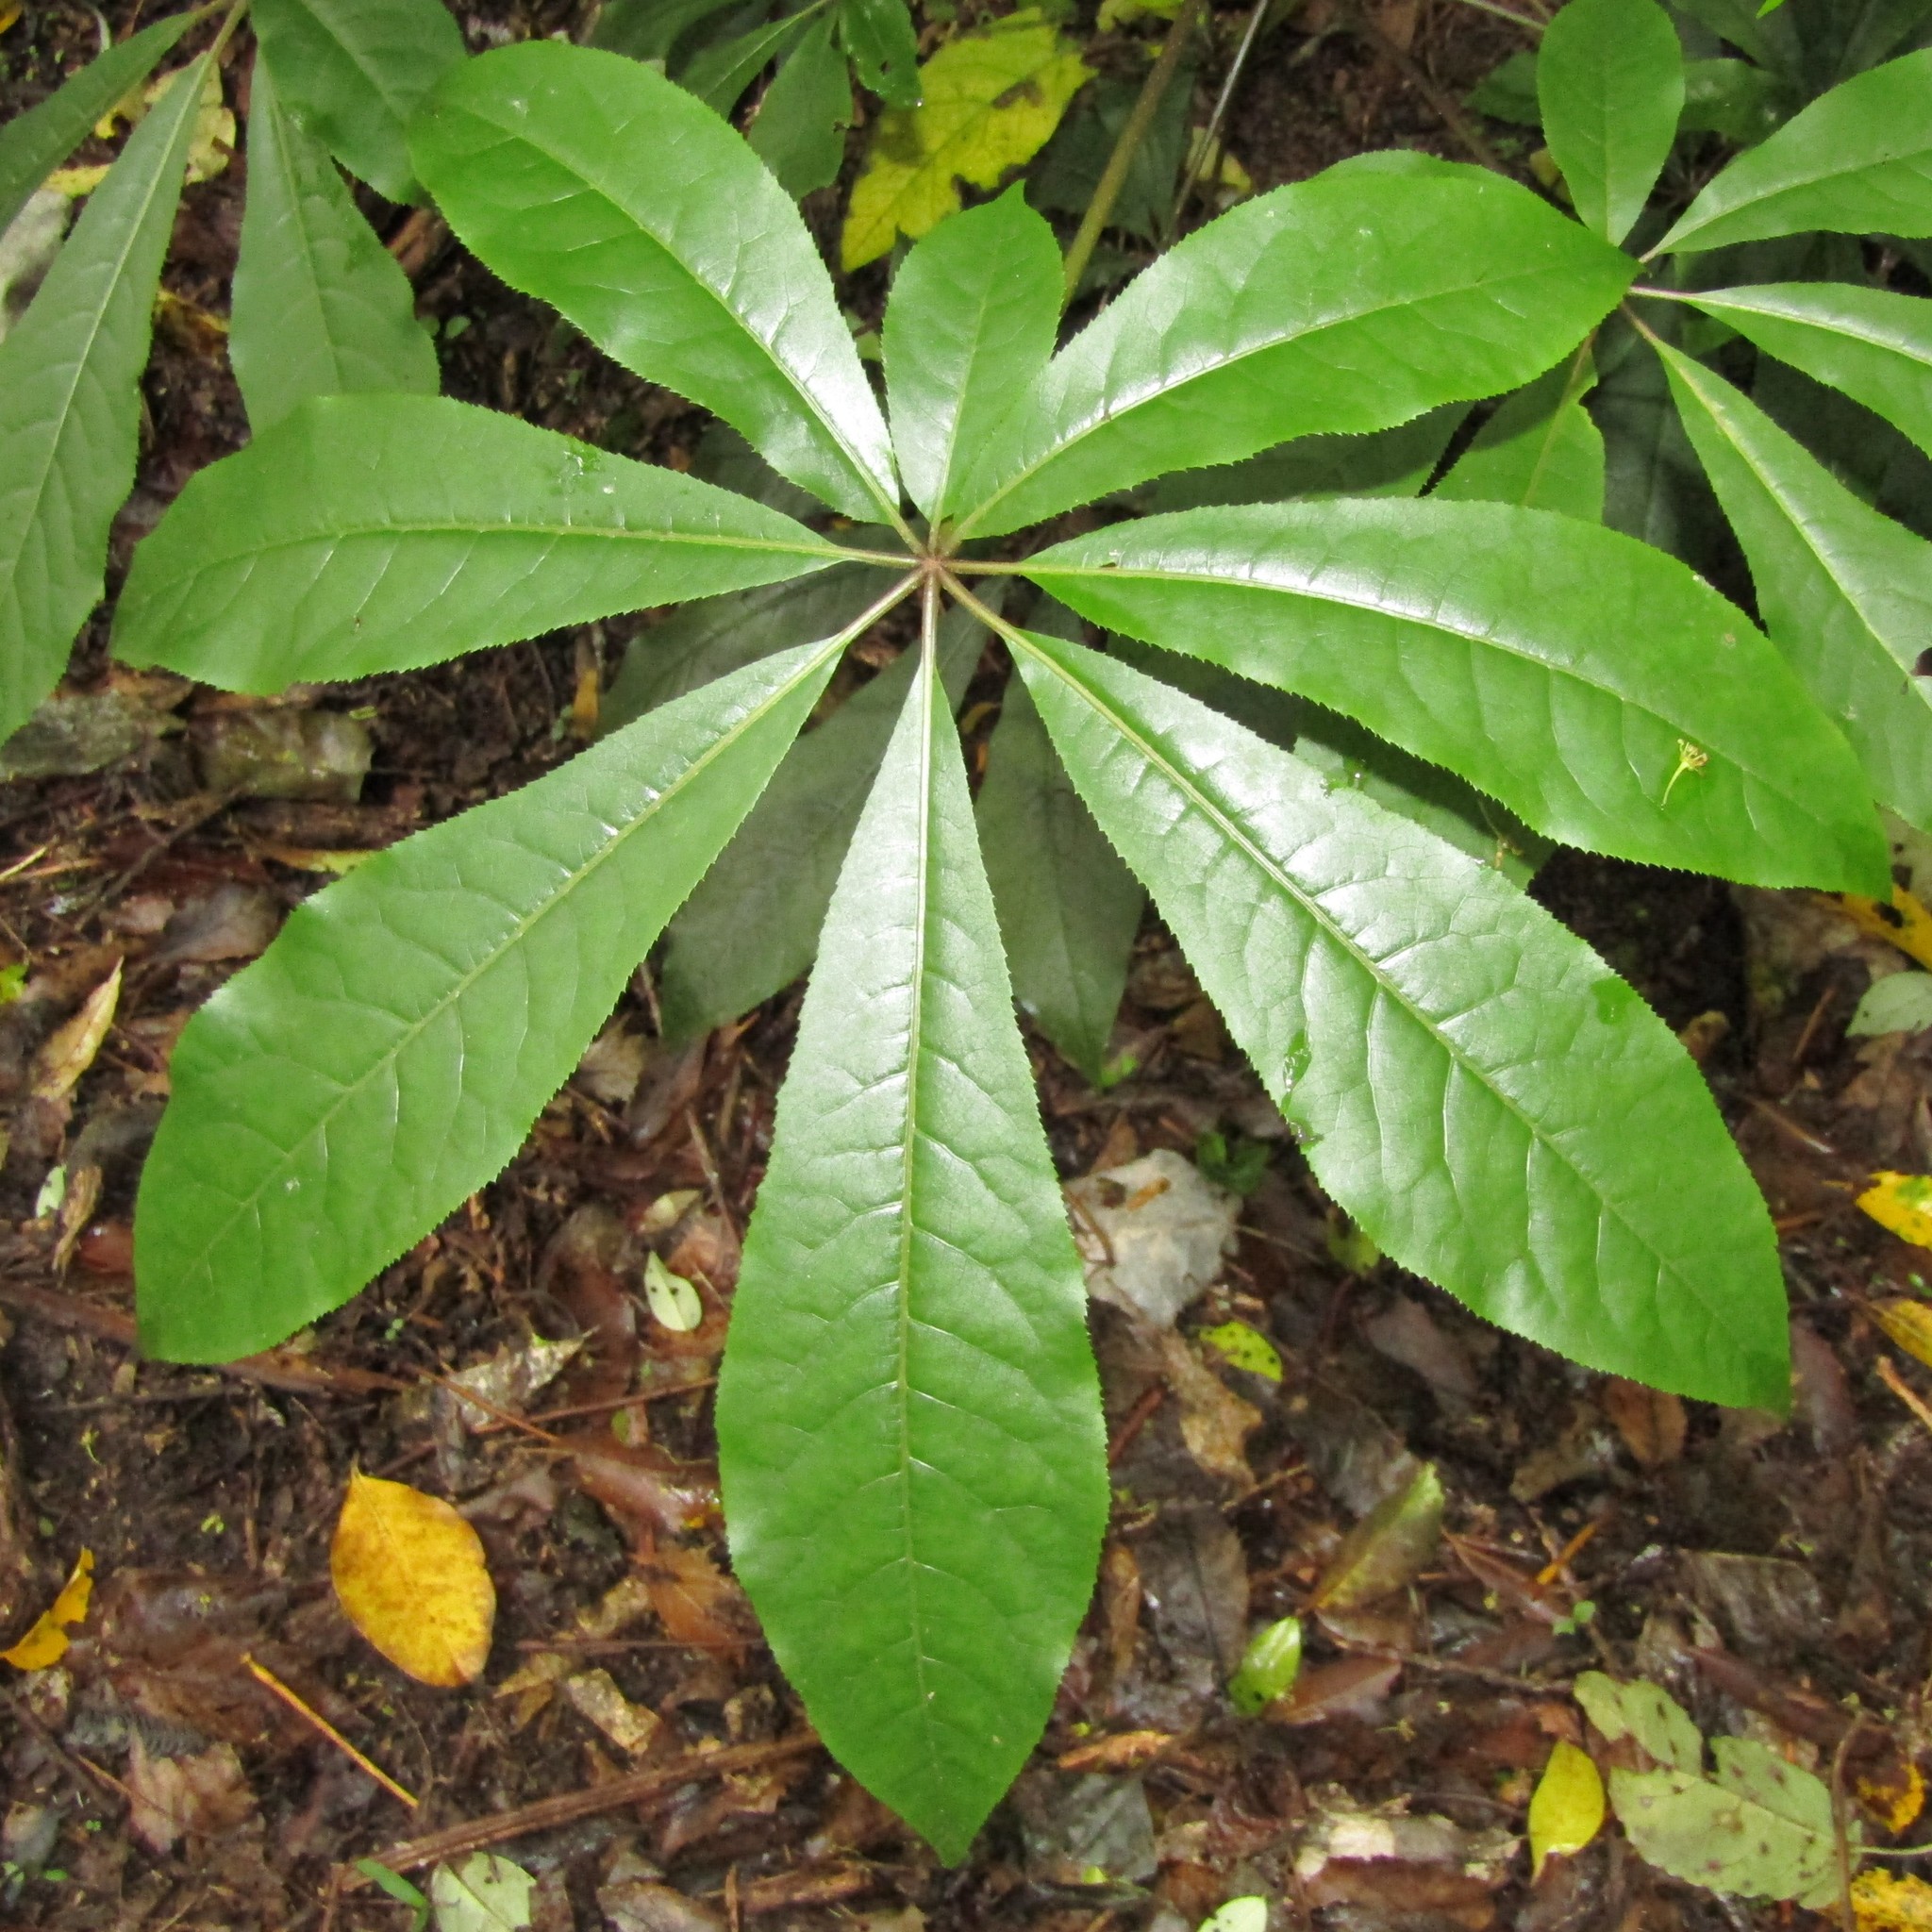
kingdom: Plantae
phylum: Tracheophyta
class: Magnoliopsida
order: Apiales
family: Araliaceae
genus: Schefflera
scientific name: Schefflera digitata
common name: Pate
